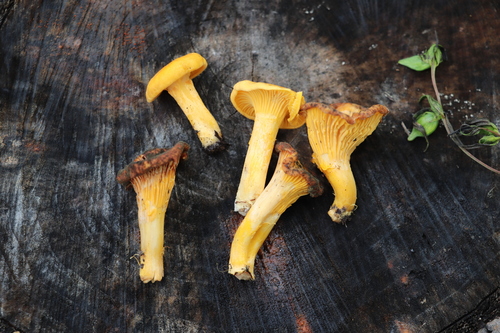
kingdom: Fungi
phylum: Basidiomycota
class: Agaricomycetes
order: Cantharellales
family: Hydnaceae
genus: Cantharellus
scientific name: Cantharellus cibarius
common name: Chanterelle
